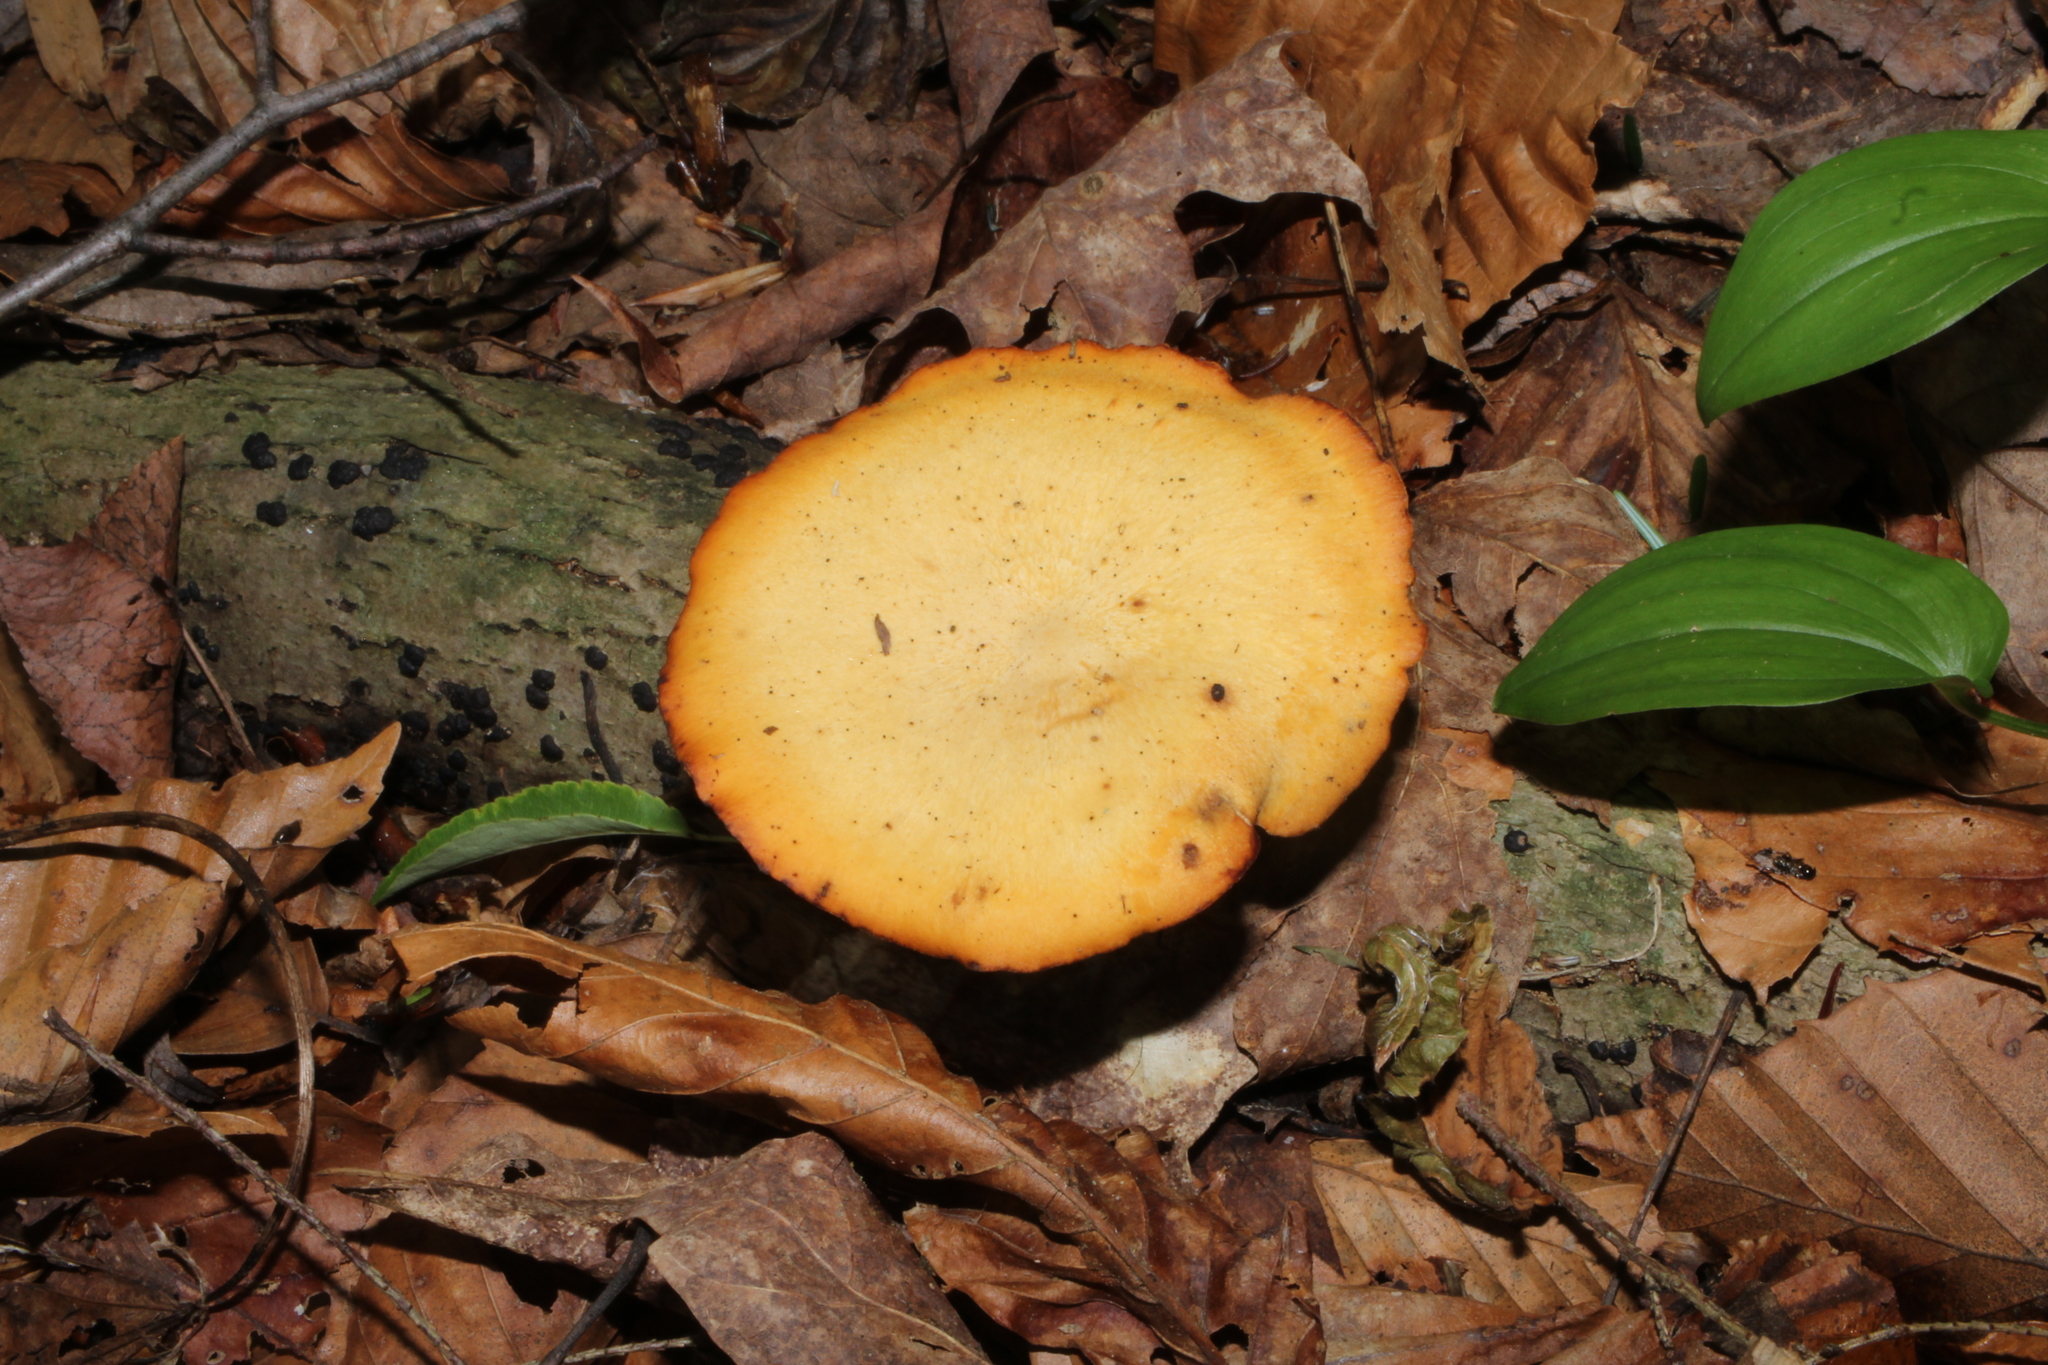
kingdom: Fungi
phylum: Basidiomycota
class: Agaricomycetes
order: Polyporales
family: Polyporaceae
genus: Cerioporus
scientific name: Cerioporus leptocephalus
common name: Blackfoot polypore
